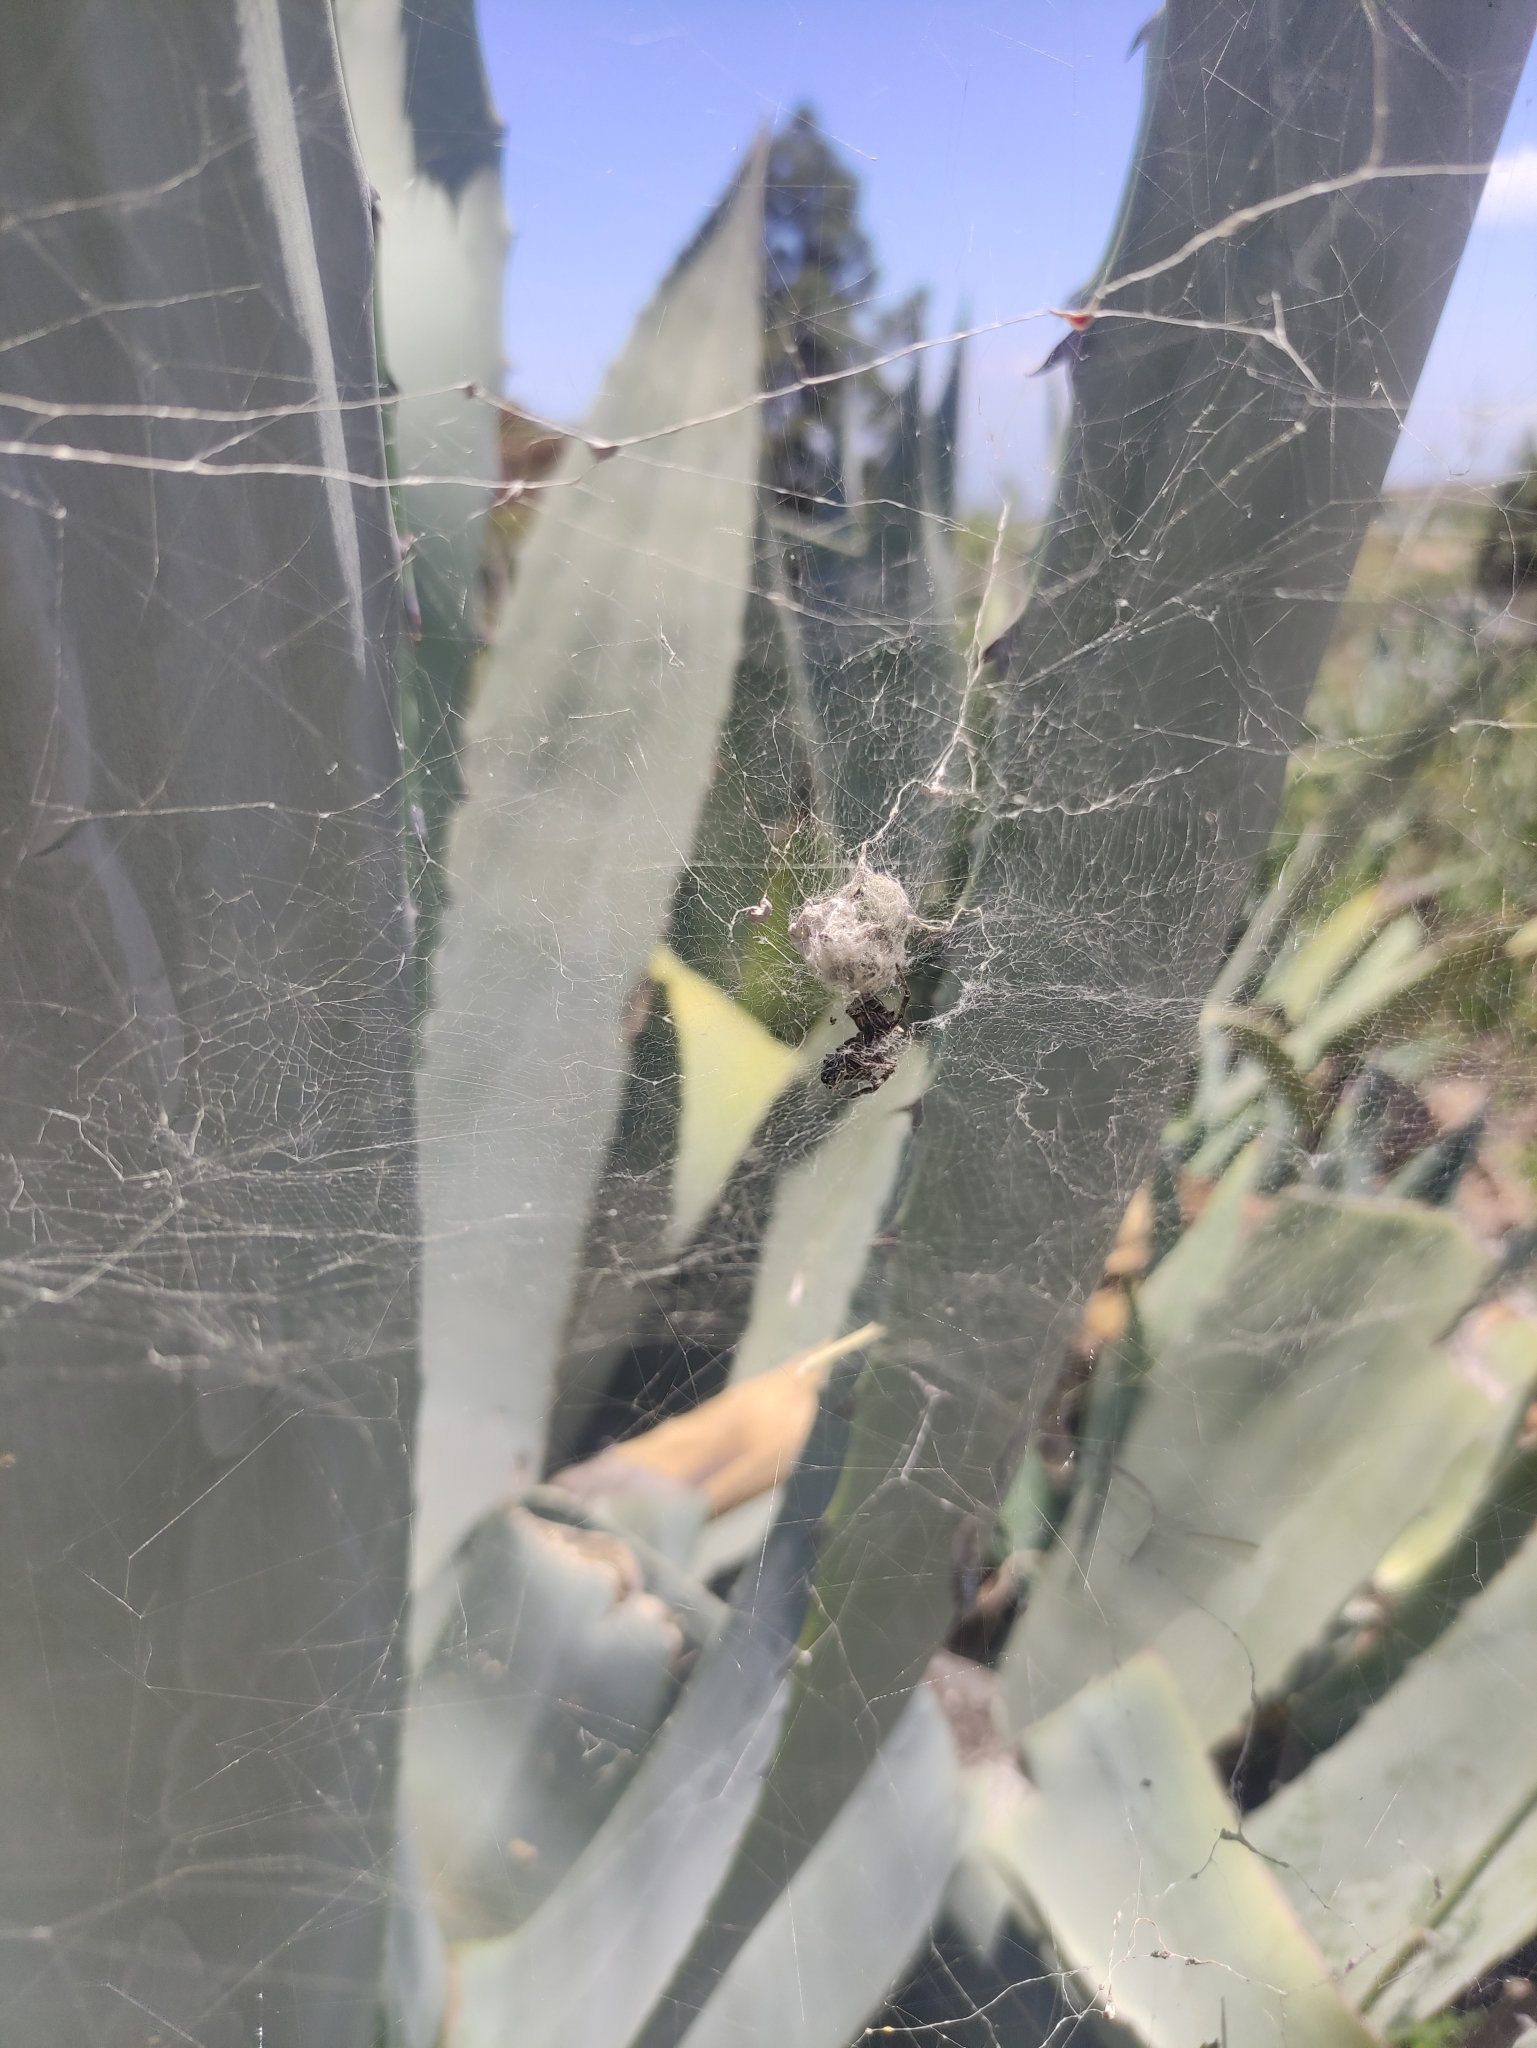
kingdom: Animalia
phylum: Arthropoda
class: Arachnida
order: Araneae
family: Araneidae
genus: Cyrtophora
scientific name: Cyrtophora citricola
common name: Orb weavers
